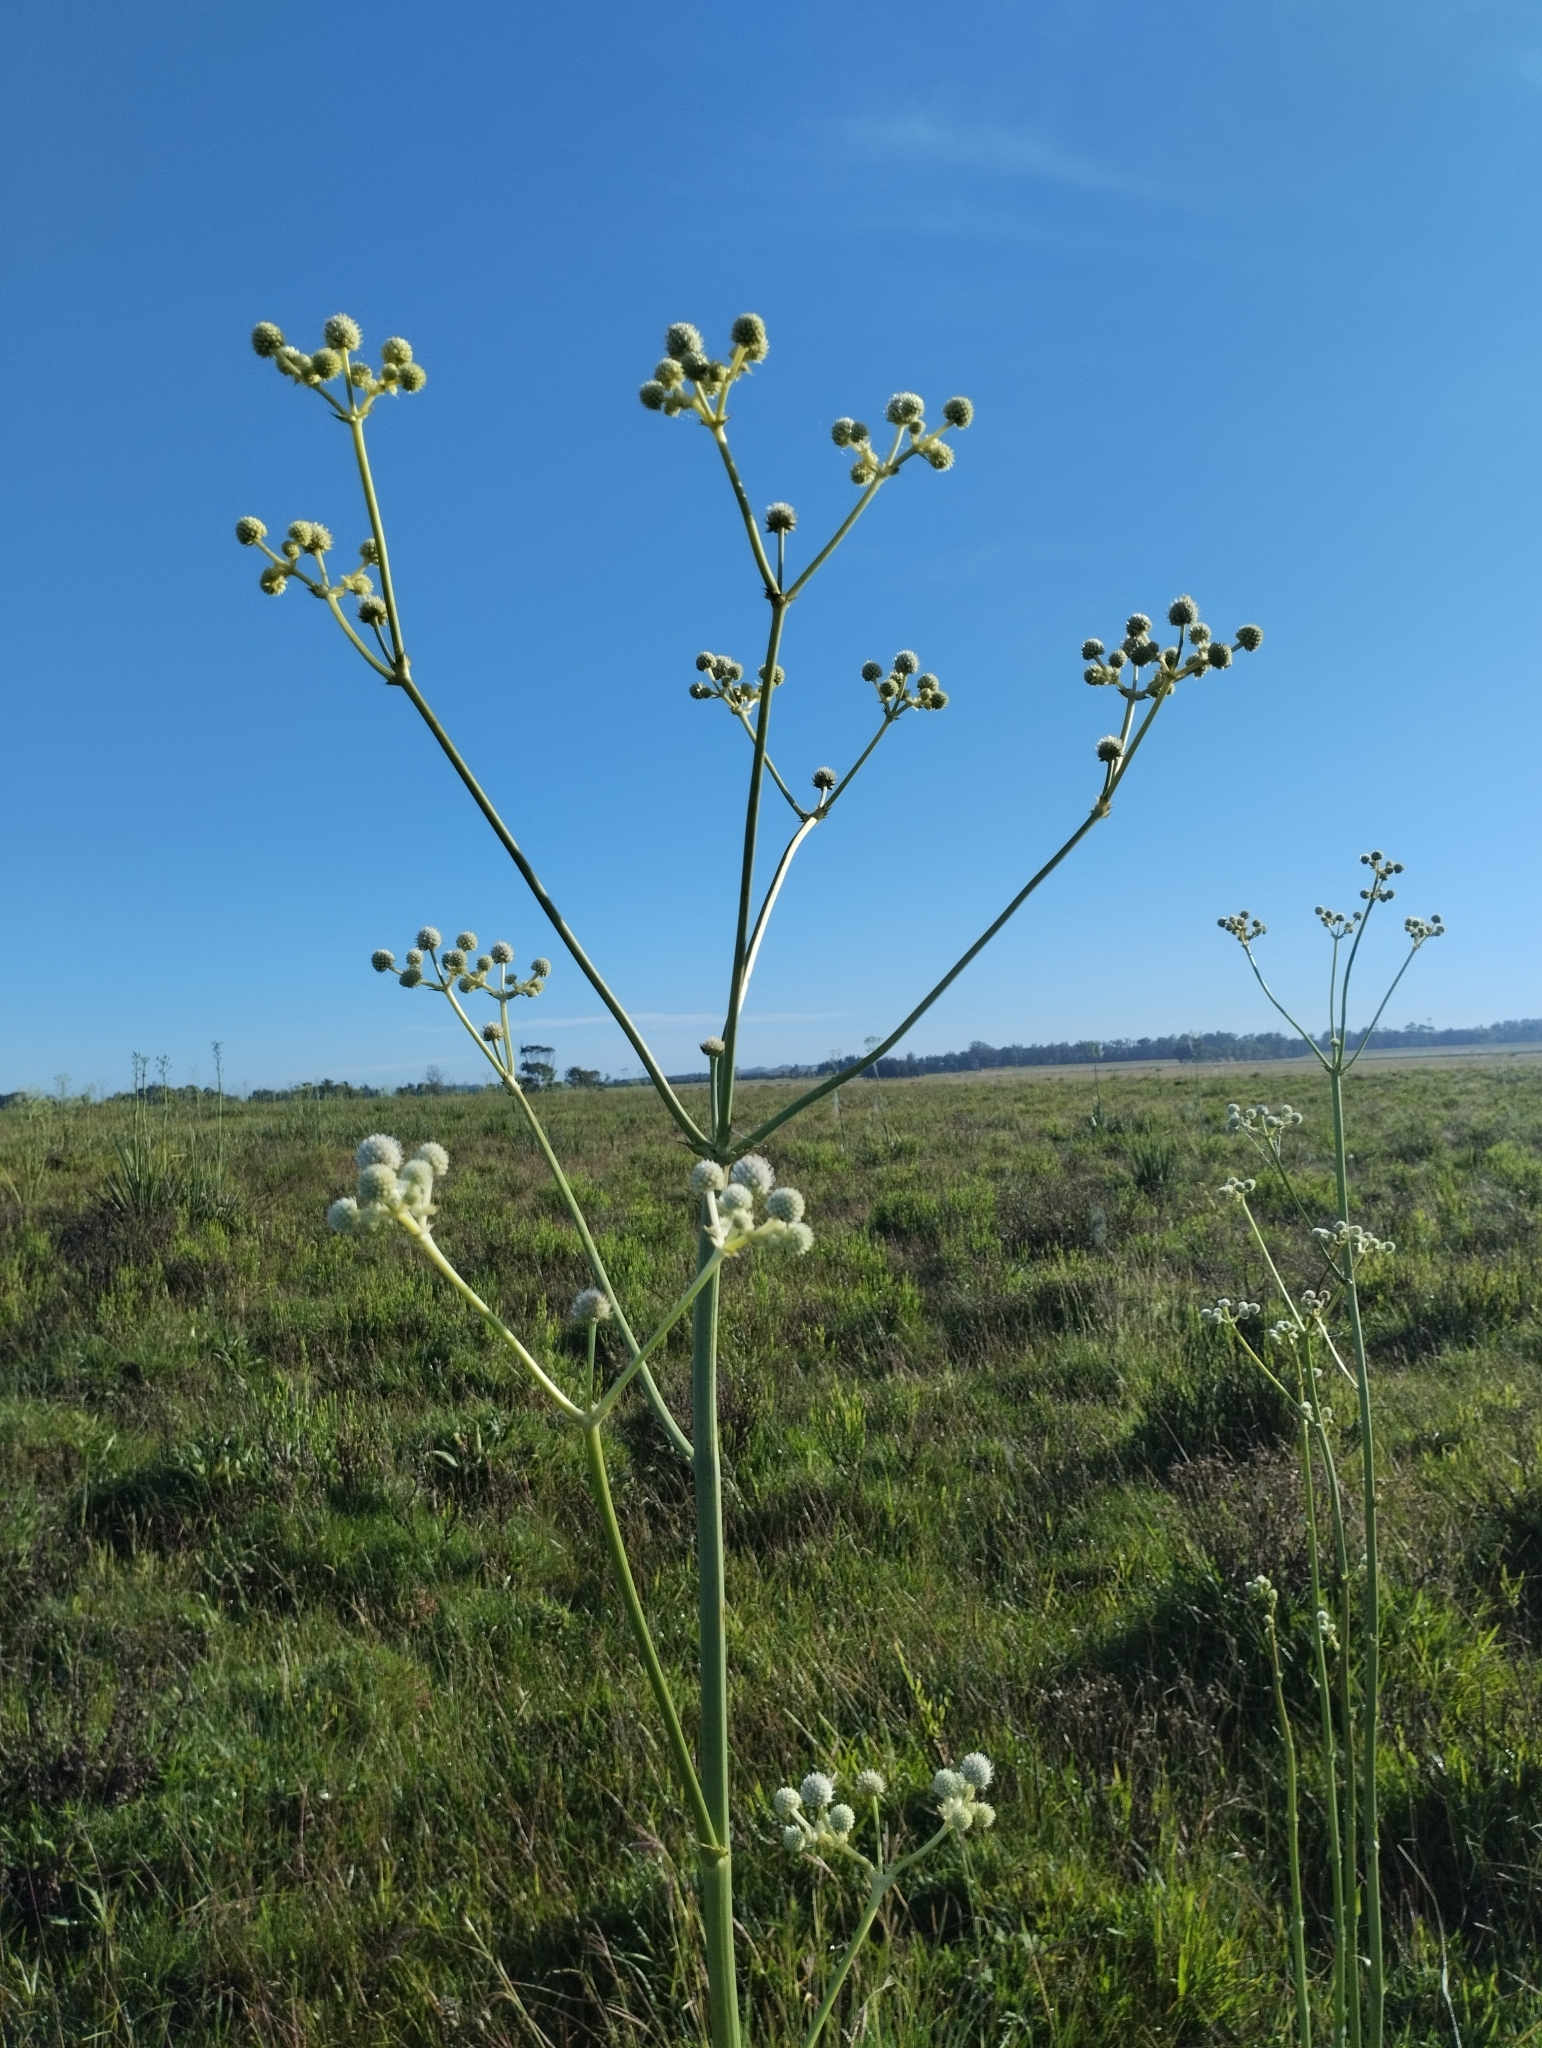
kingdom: Plantae
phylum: Tracheophyta
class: Magnoliopsida
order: Apiales
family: Apiaceae
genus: Eryngium
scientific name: Eryngium serra
